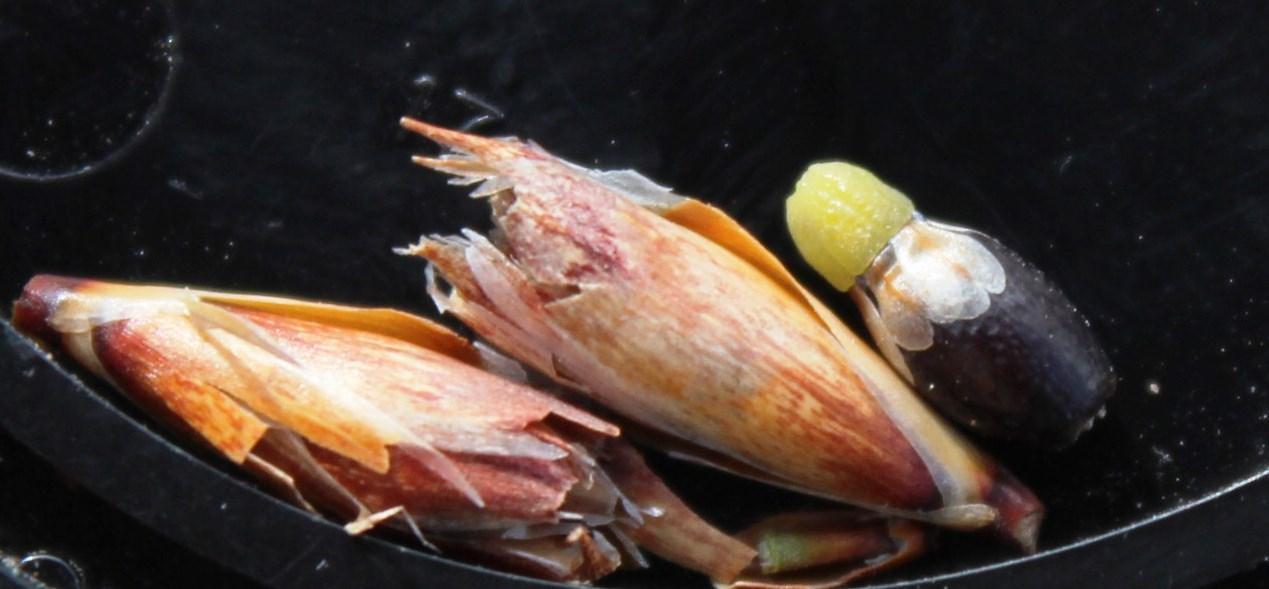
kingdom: Plantae
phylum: Tracheophyta
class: Liliopsida
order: Poales
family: Restionaceae
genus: Willdenowia
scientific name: Willdenowia arescens
